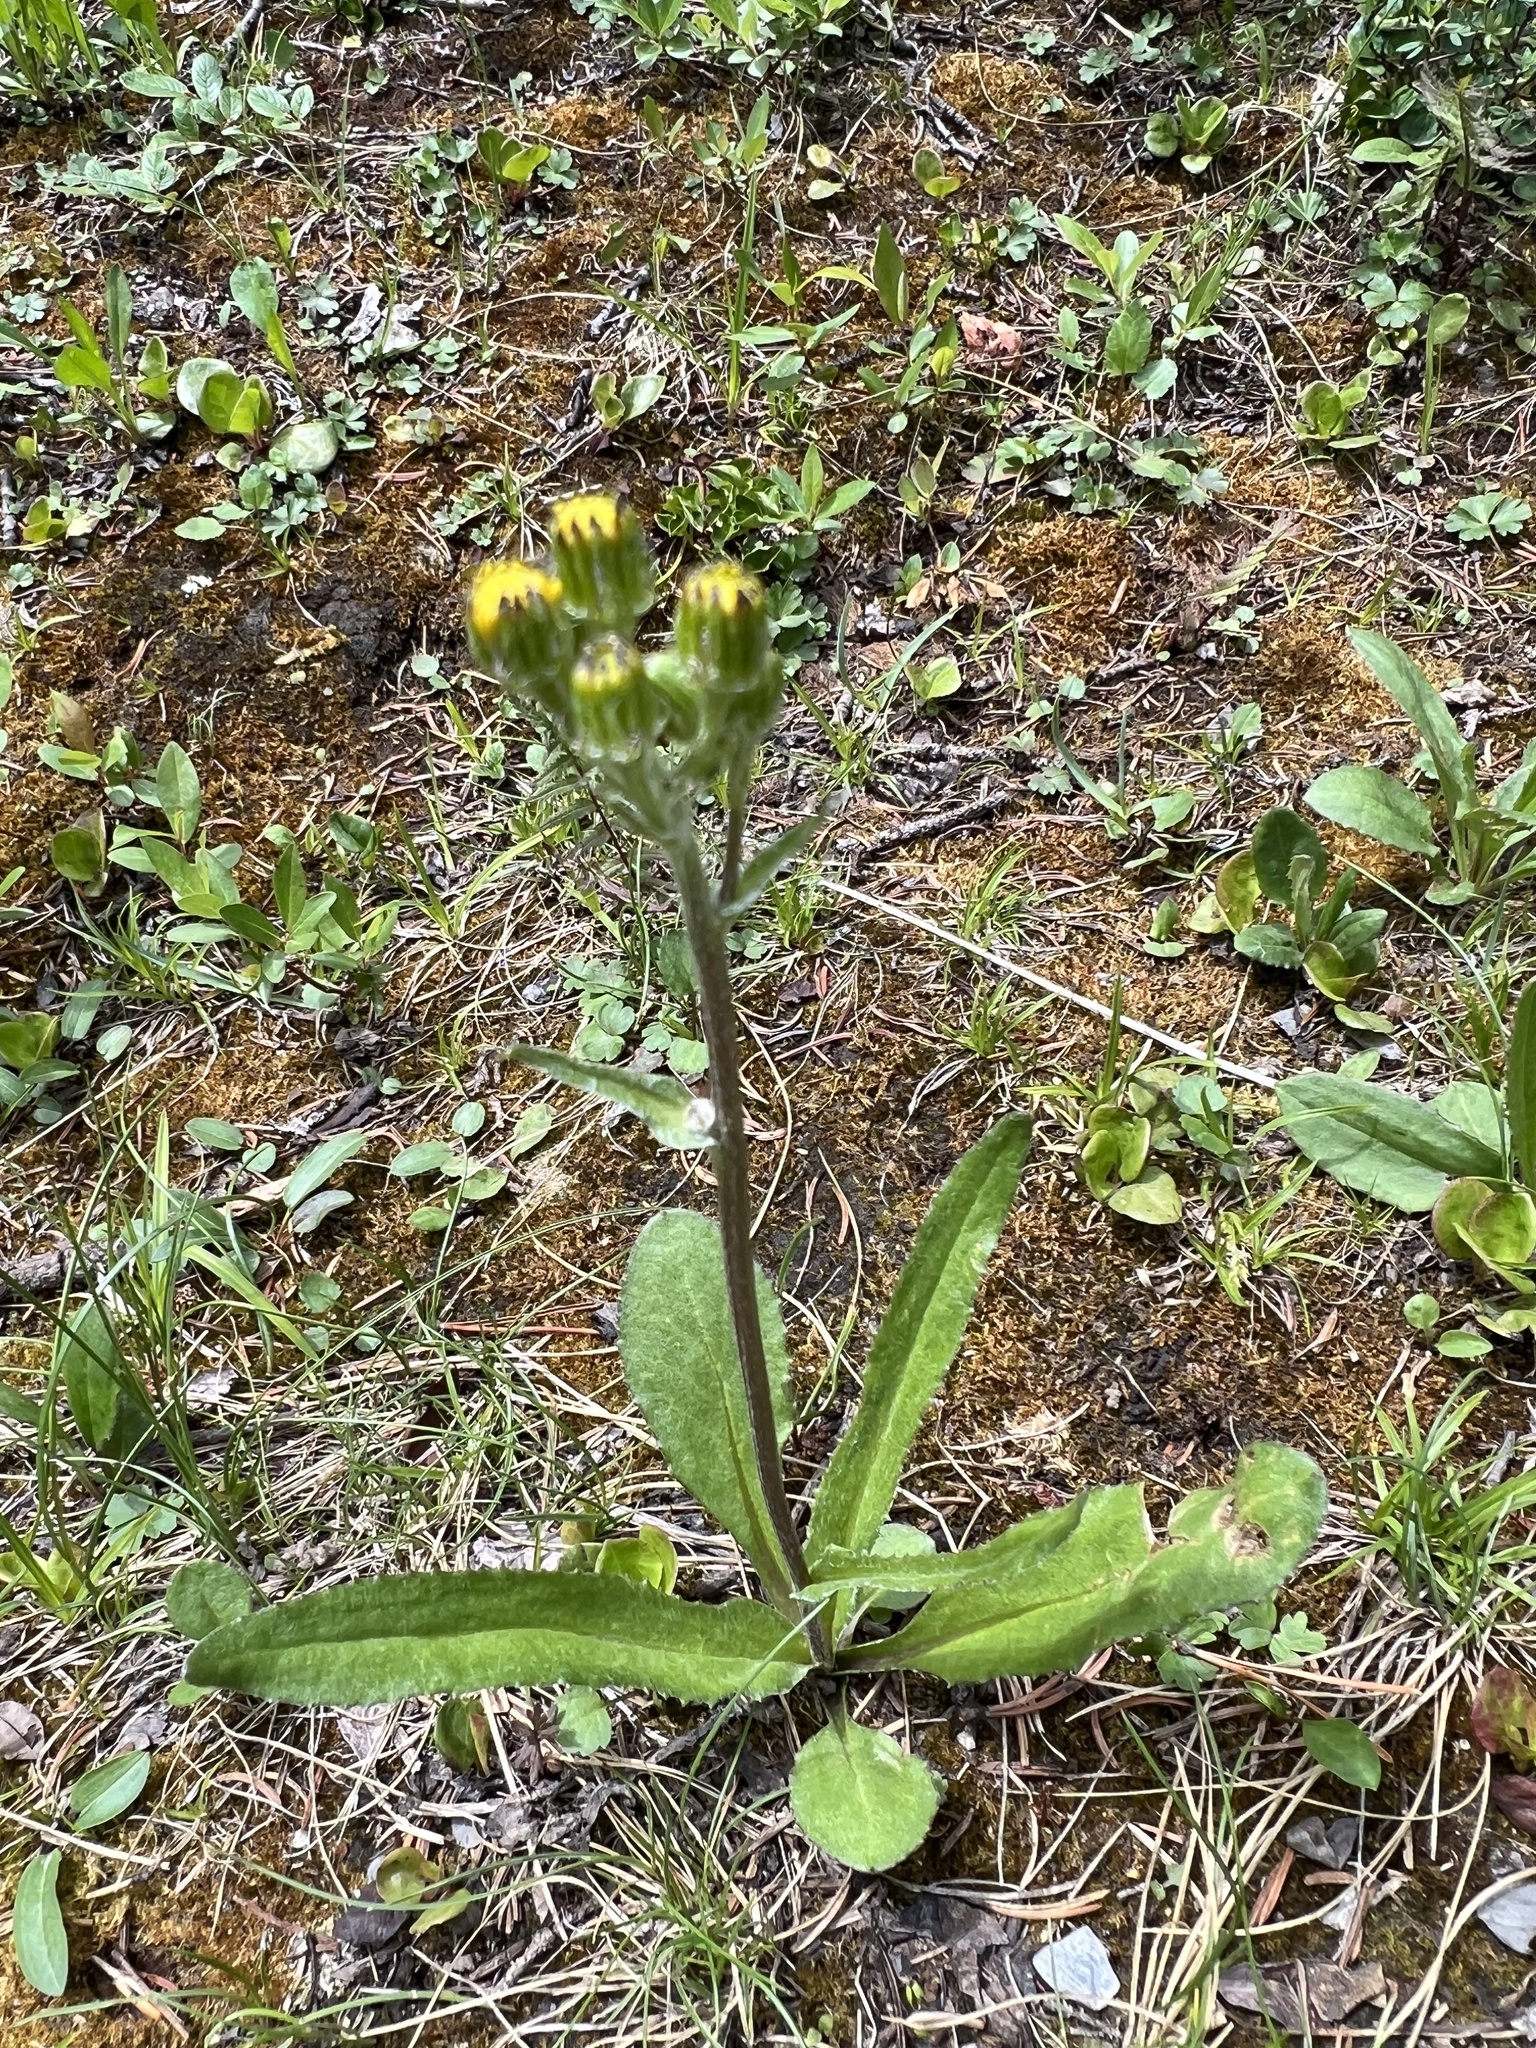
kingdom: Plantae
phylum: Tracheophyta
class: Magnoliopsida
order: Asterales
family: Asteraceae
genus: Senecio
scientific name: Senecio lugens
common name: Black-tip groundsel
